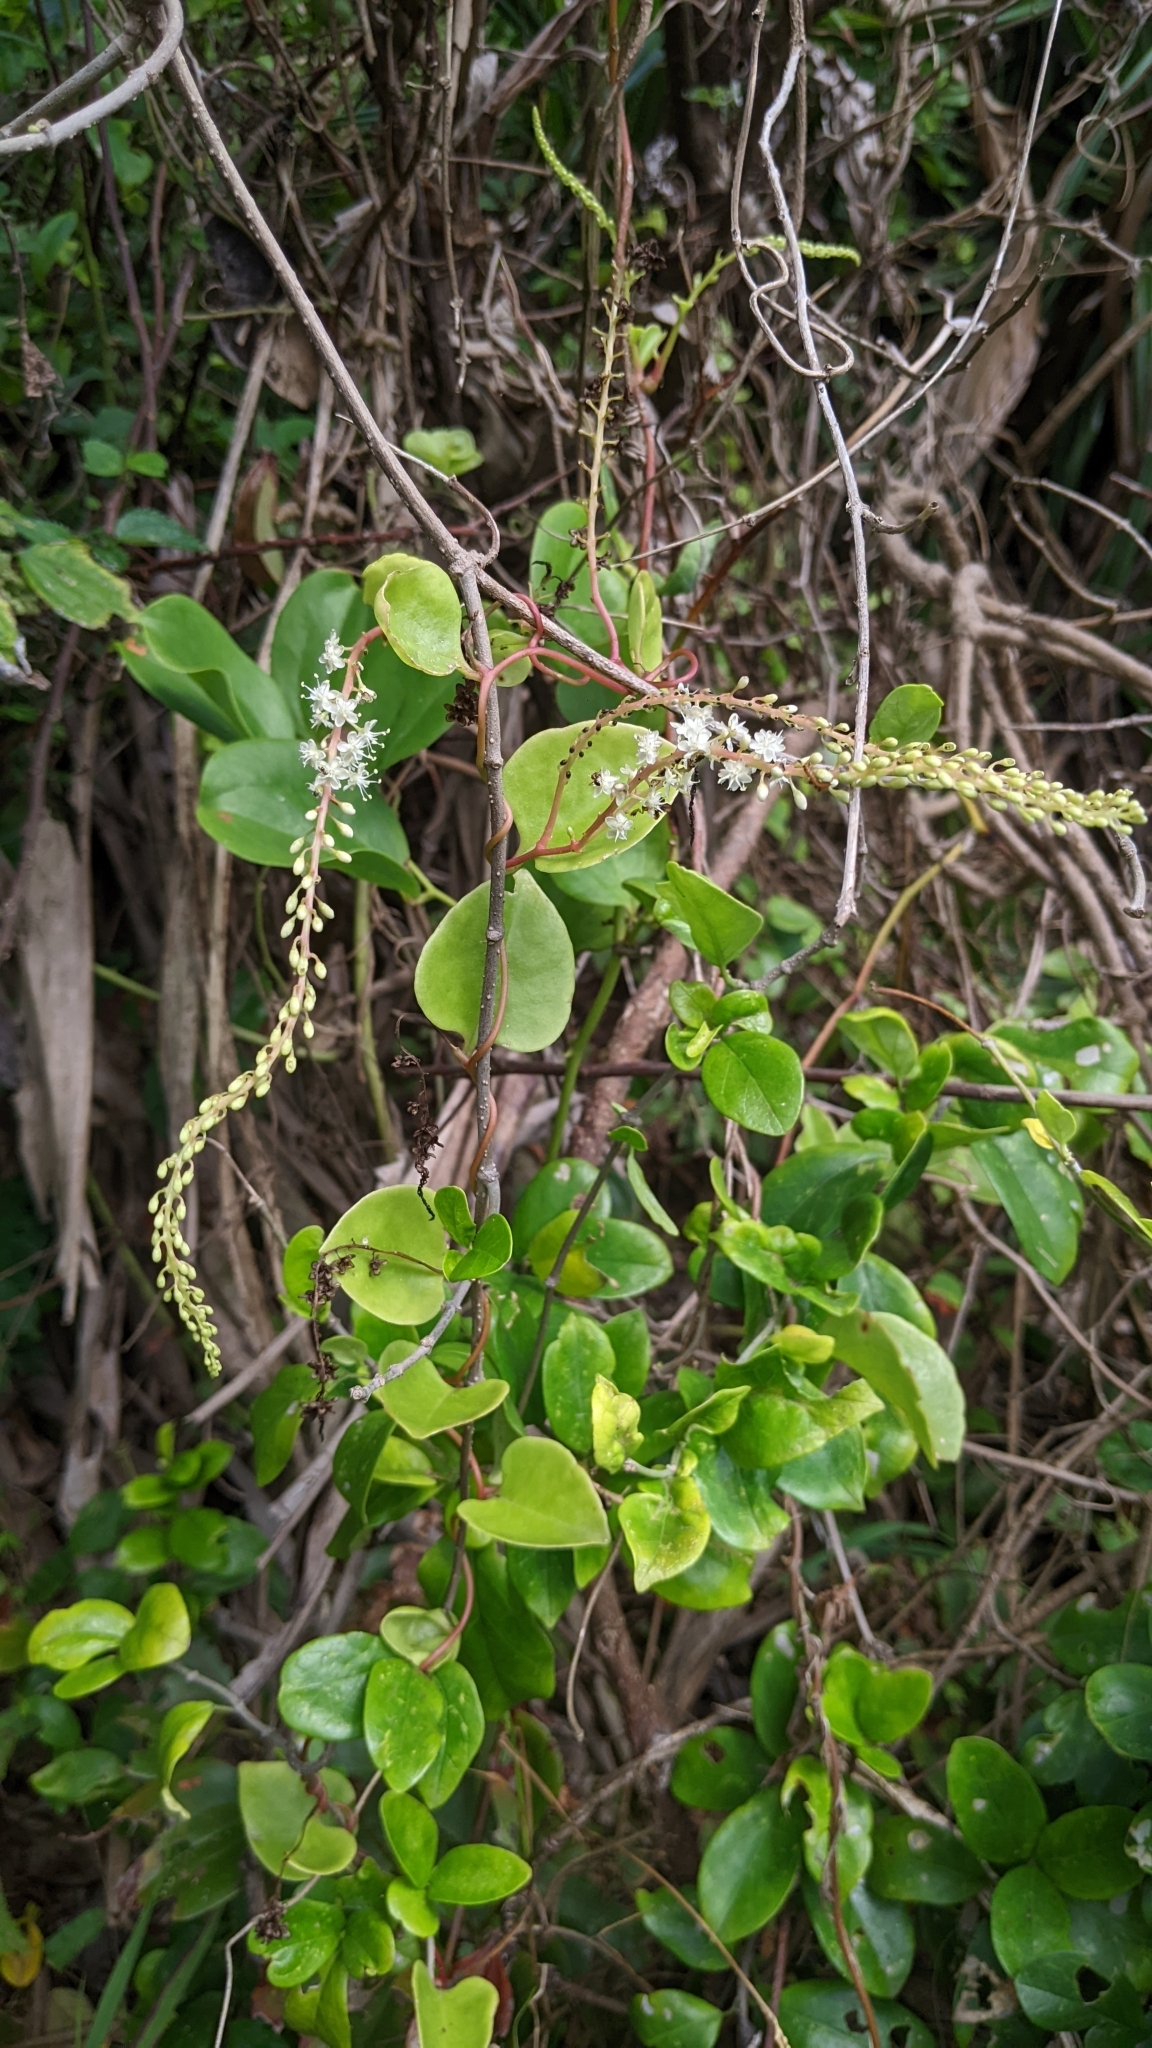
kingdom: Plantae
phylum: Tracheophyta
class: Magnoliopsida
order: Caryophyllales
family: Basellaceae
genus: Anredera
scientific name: Anredera cordifolia
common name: Heartleaf madeiravine
